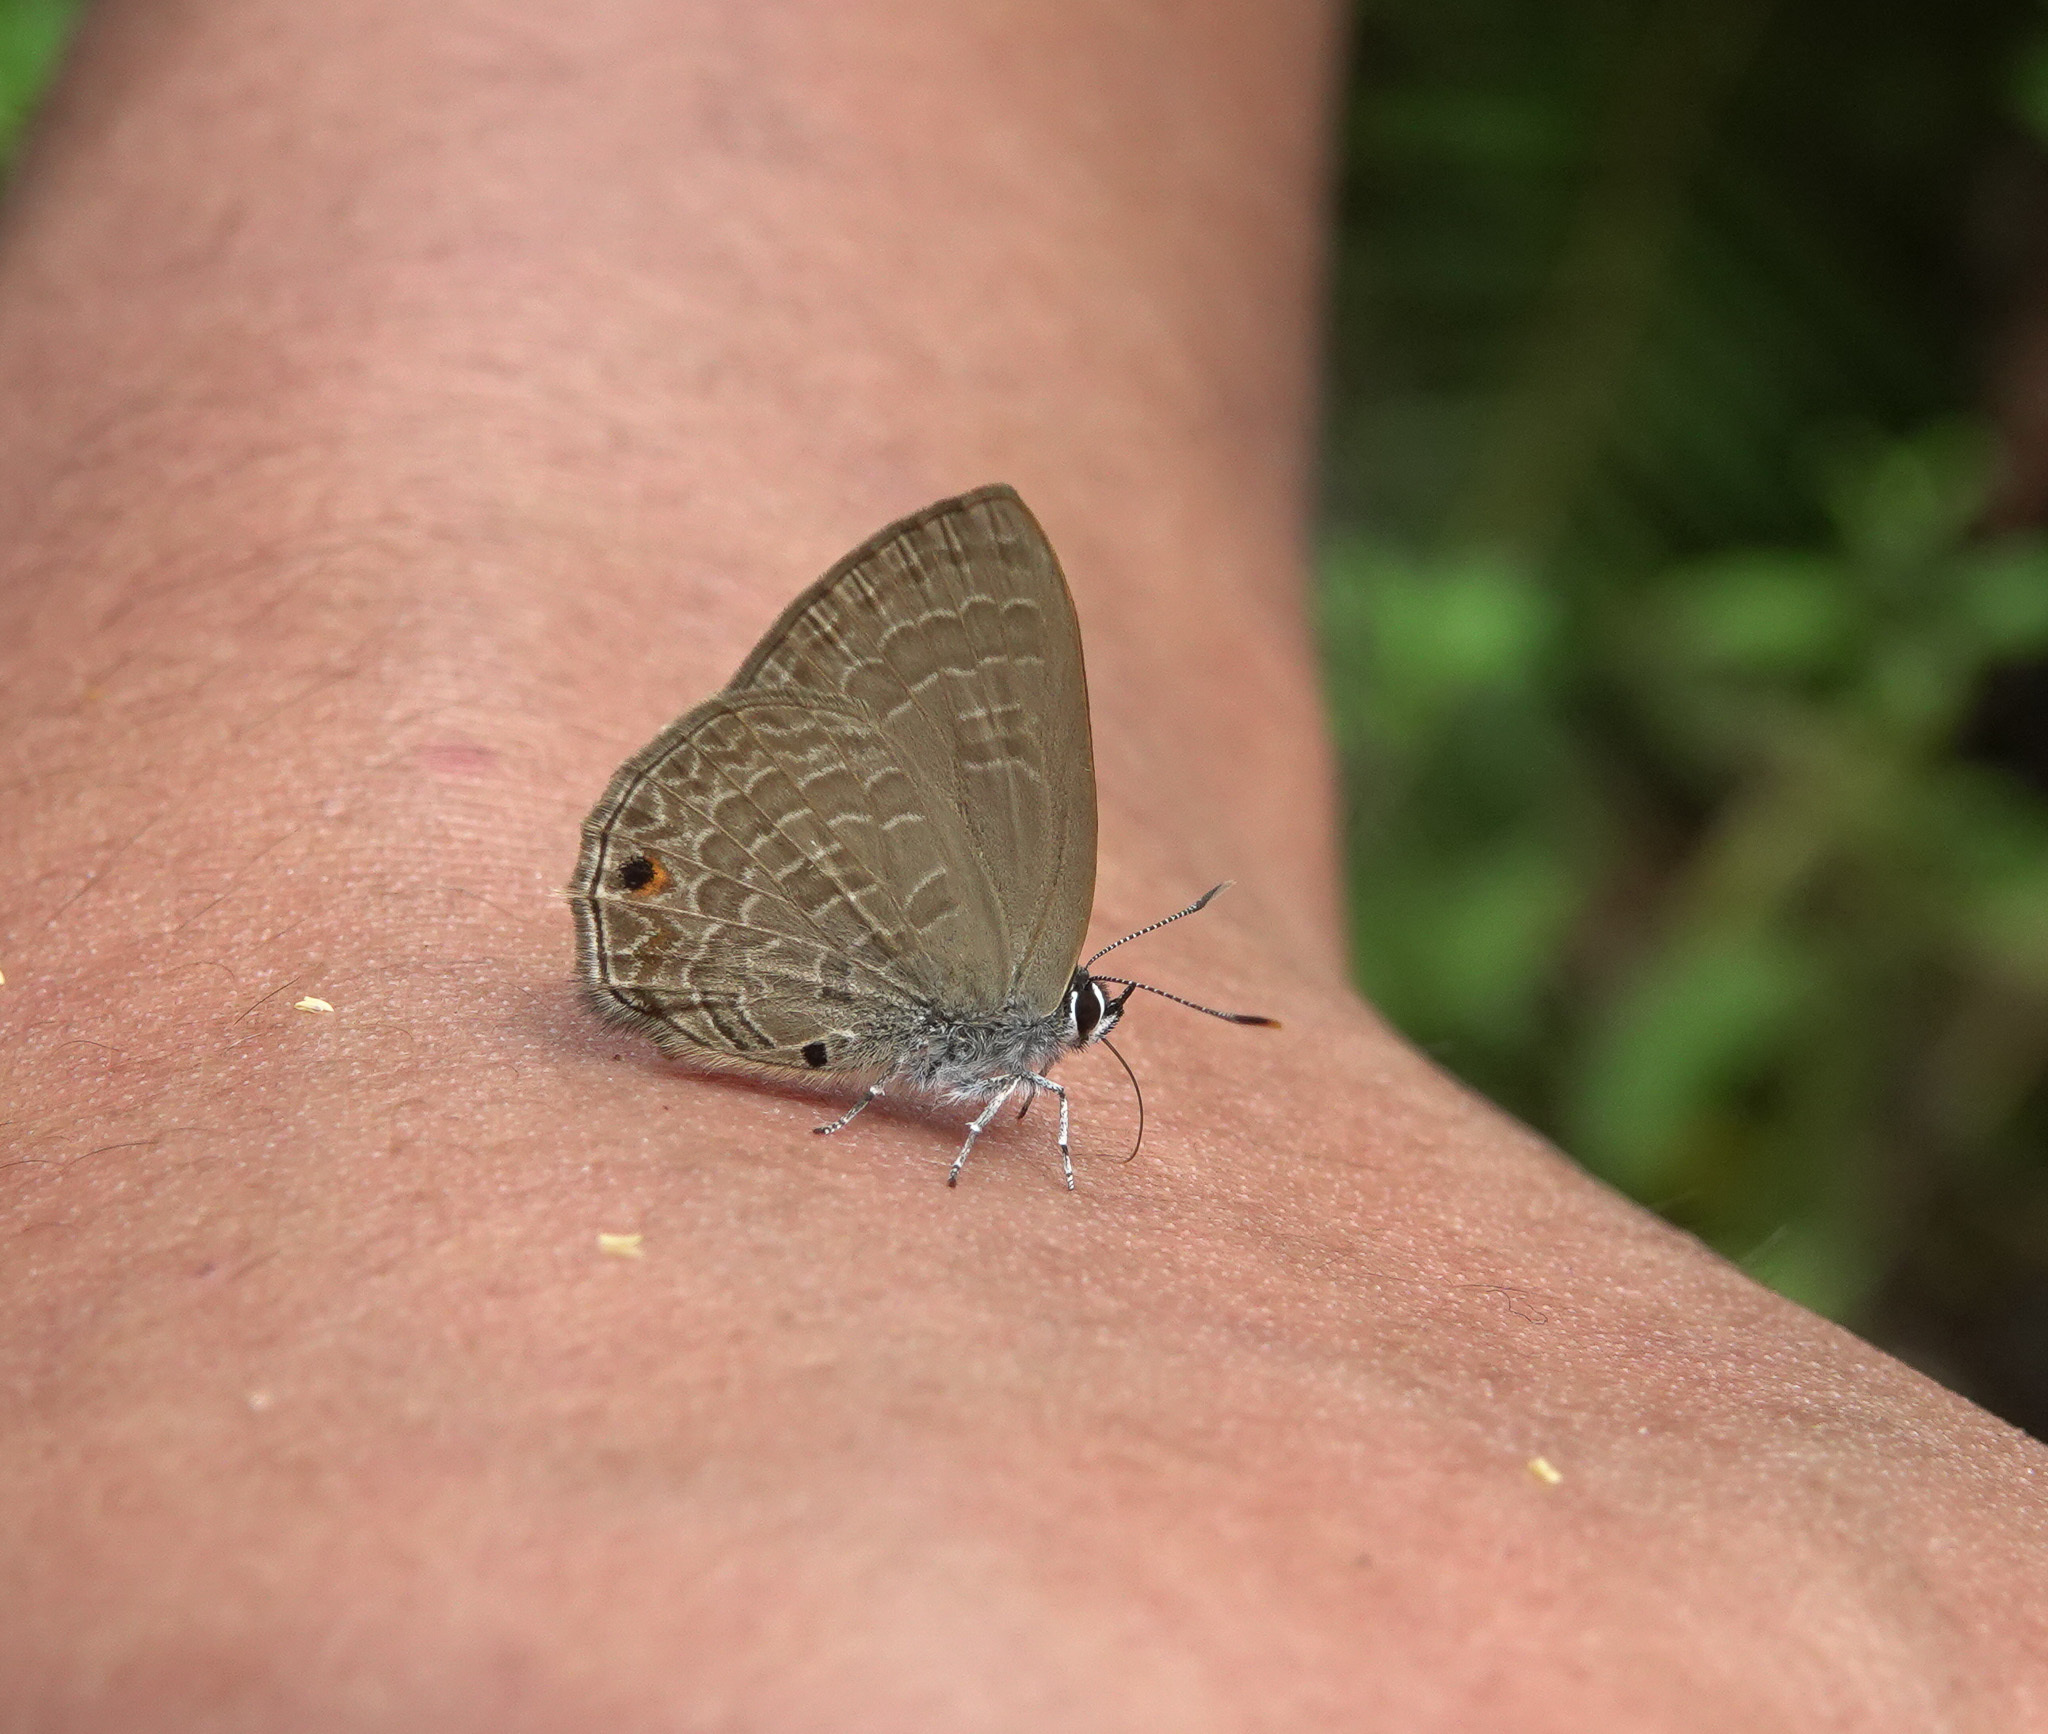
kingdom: Animalia
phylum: Arthropoda
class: Insecta
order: Lepidoptera
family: Lycaenidae
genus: Anthene
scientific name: Anthene emolus
